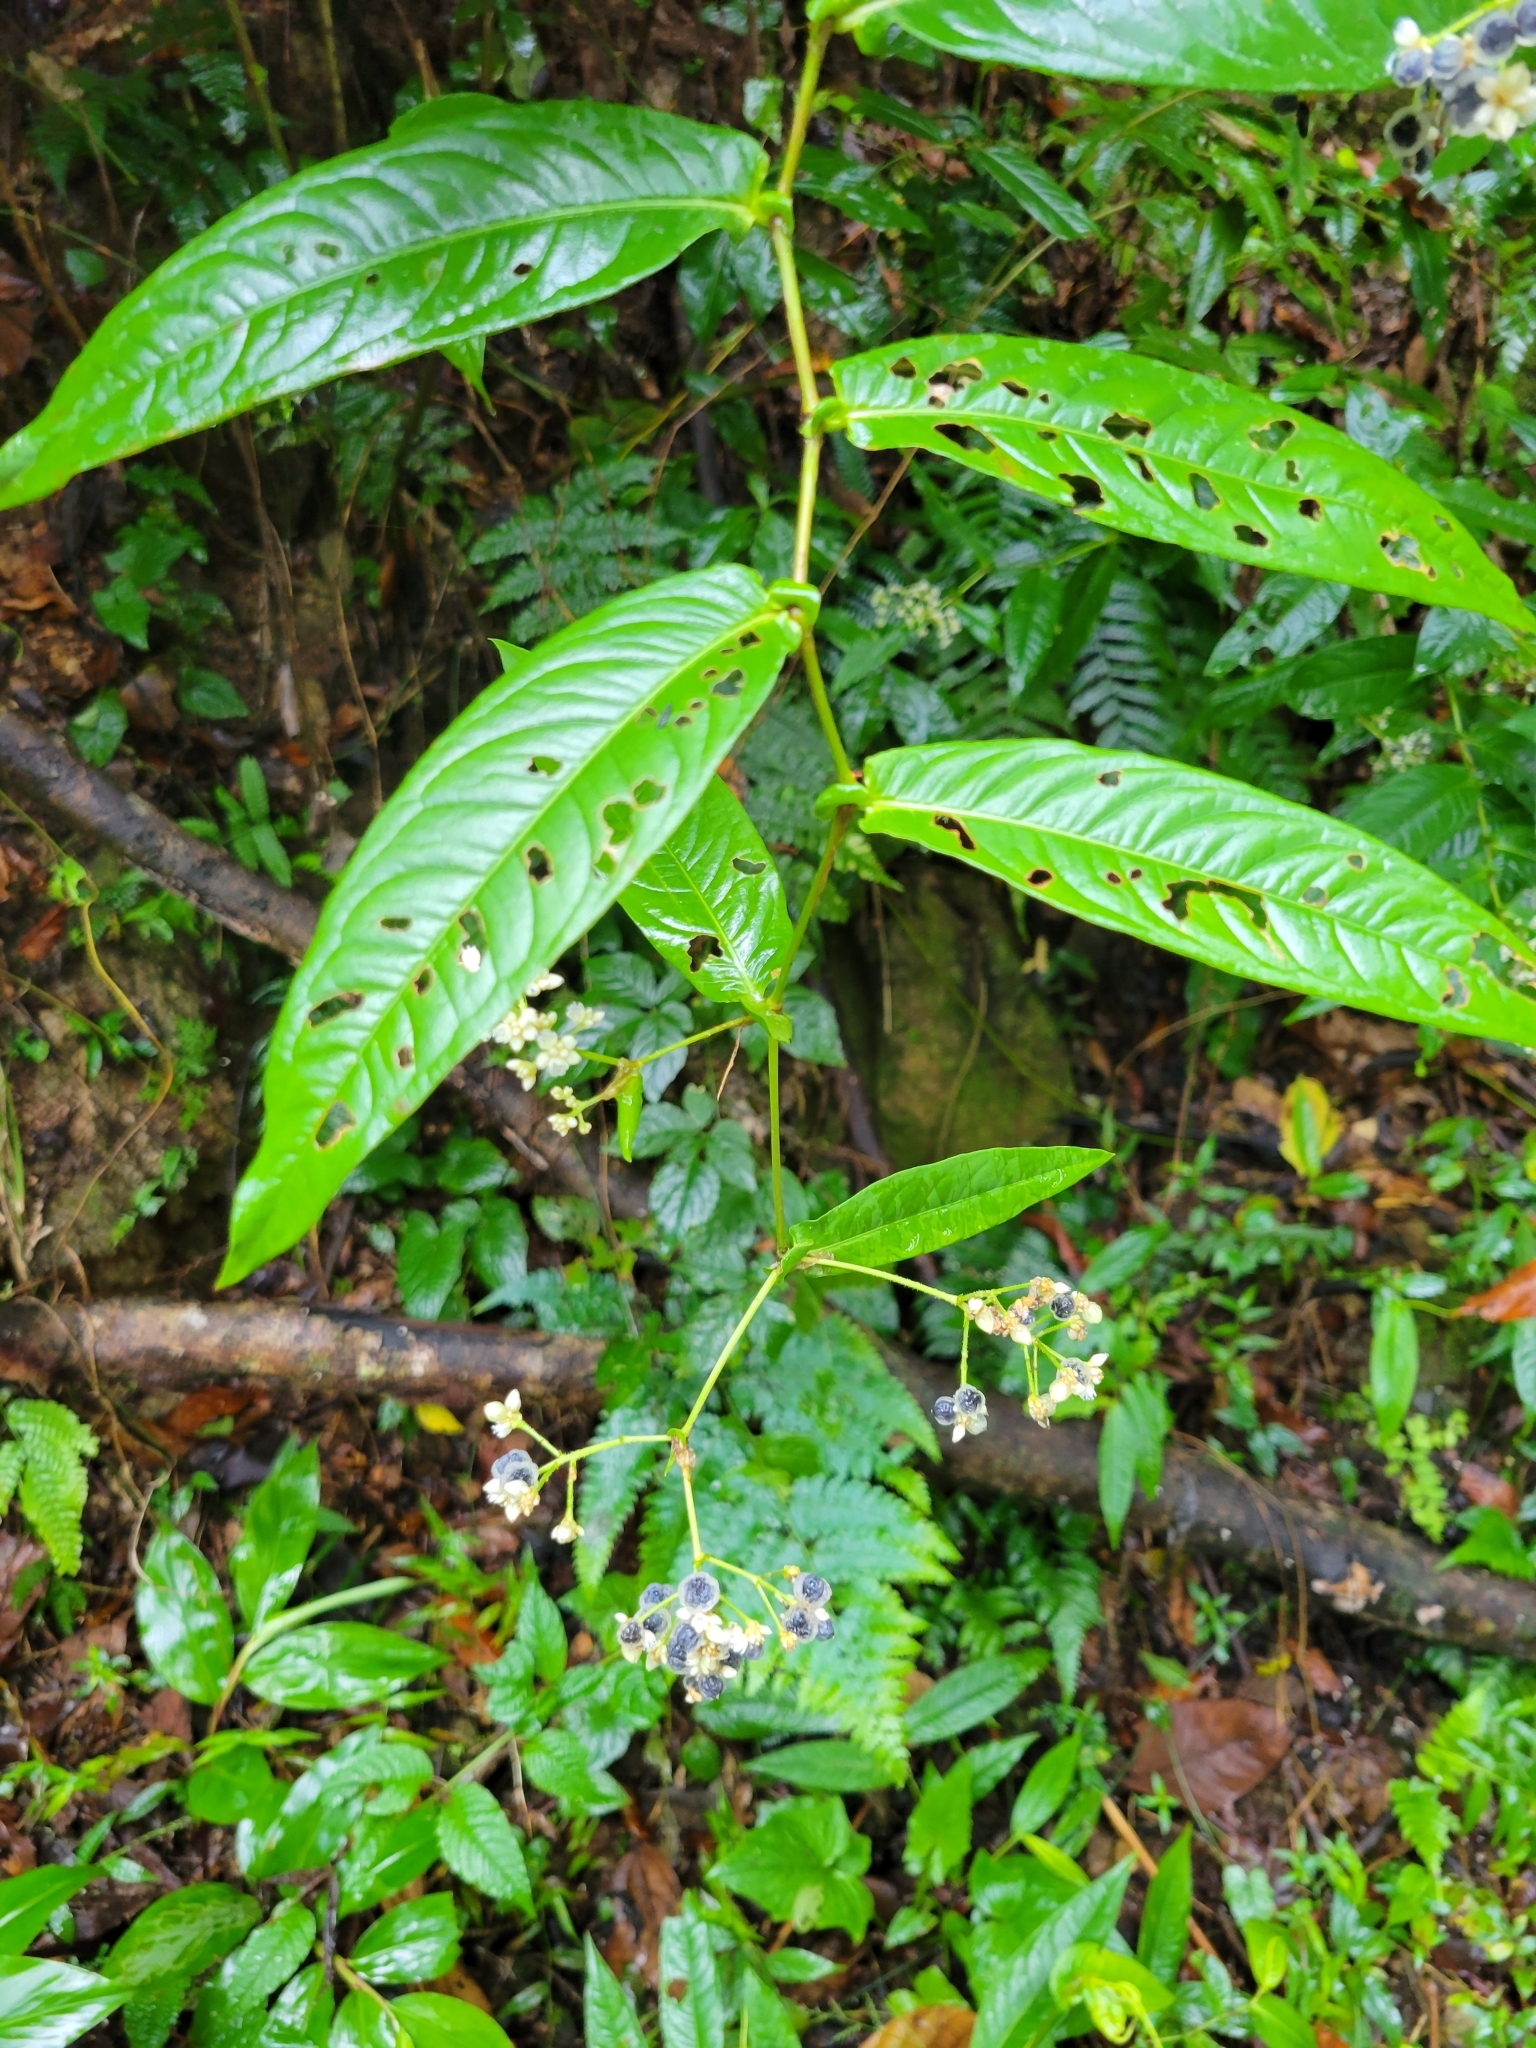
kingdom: Plantae
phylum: Tracheophyta
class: Magnoliopsida
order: Caryophyllales
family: Polygonaceae
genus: Persicaria
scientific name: Persicaria chinensis
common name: Chinese knotweed
